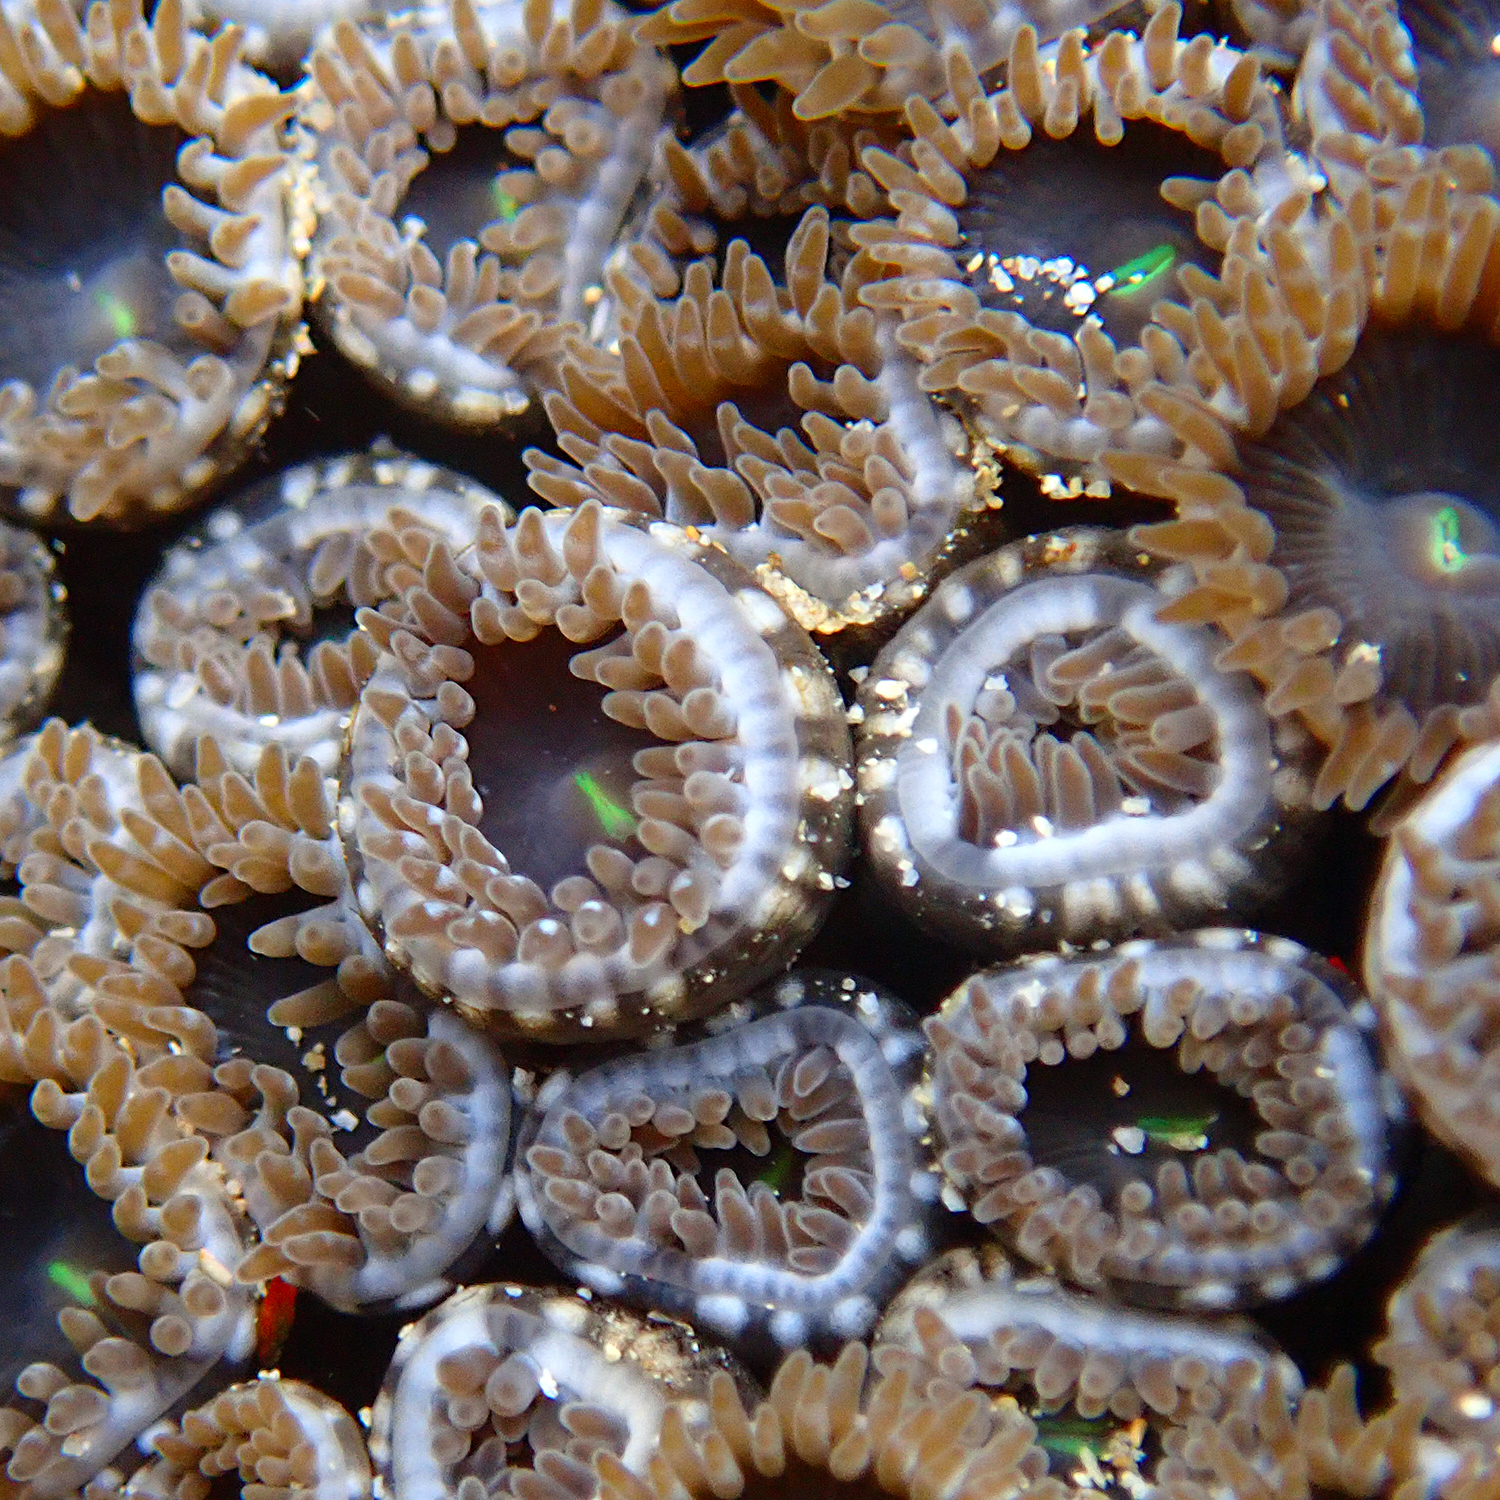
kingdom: Animalia
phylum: Cnidaria
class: Anthozoa
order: Zoantharia
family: Zoanthidae
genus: Zoanthus
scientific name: Zoanthus gigantus
